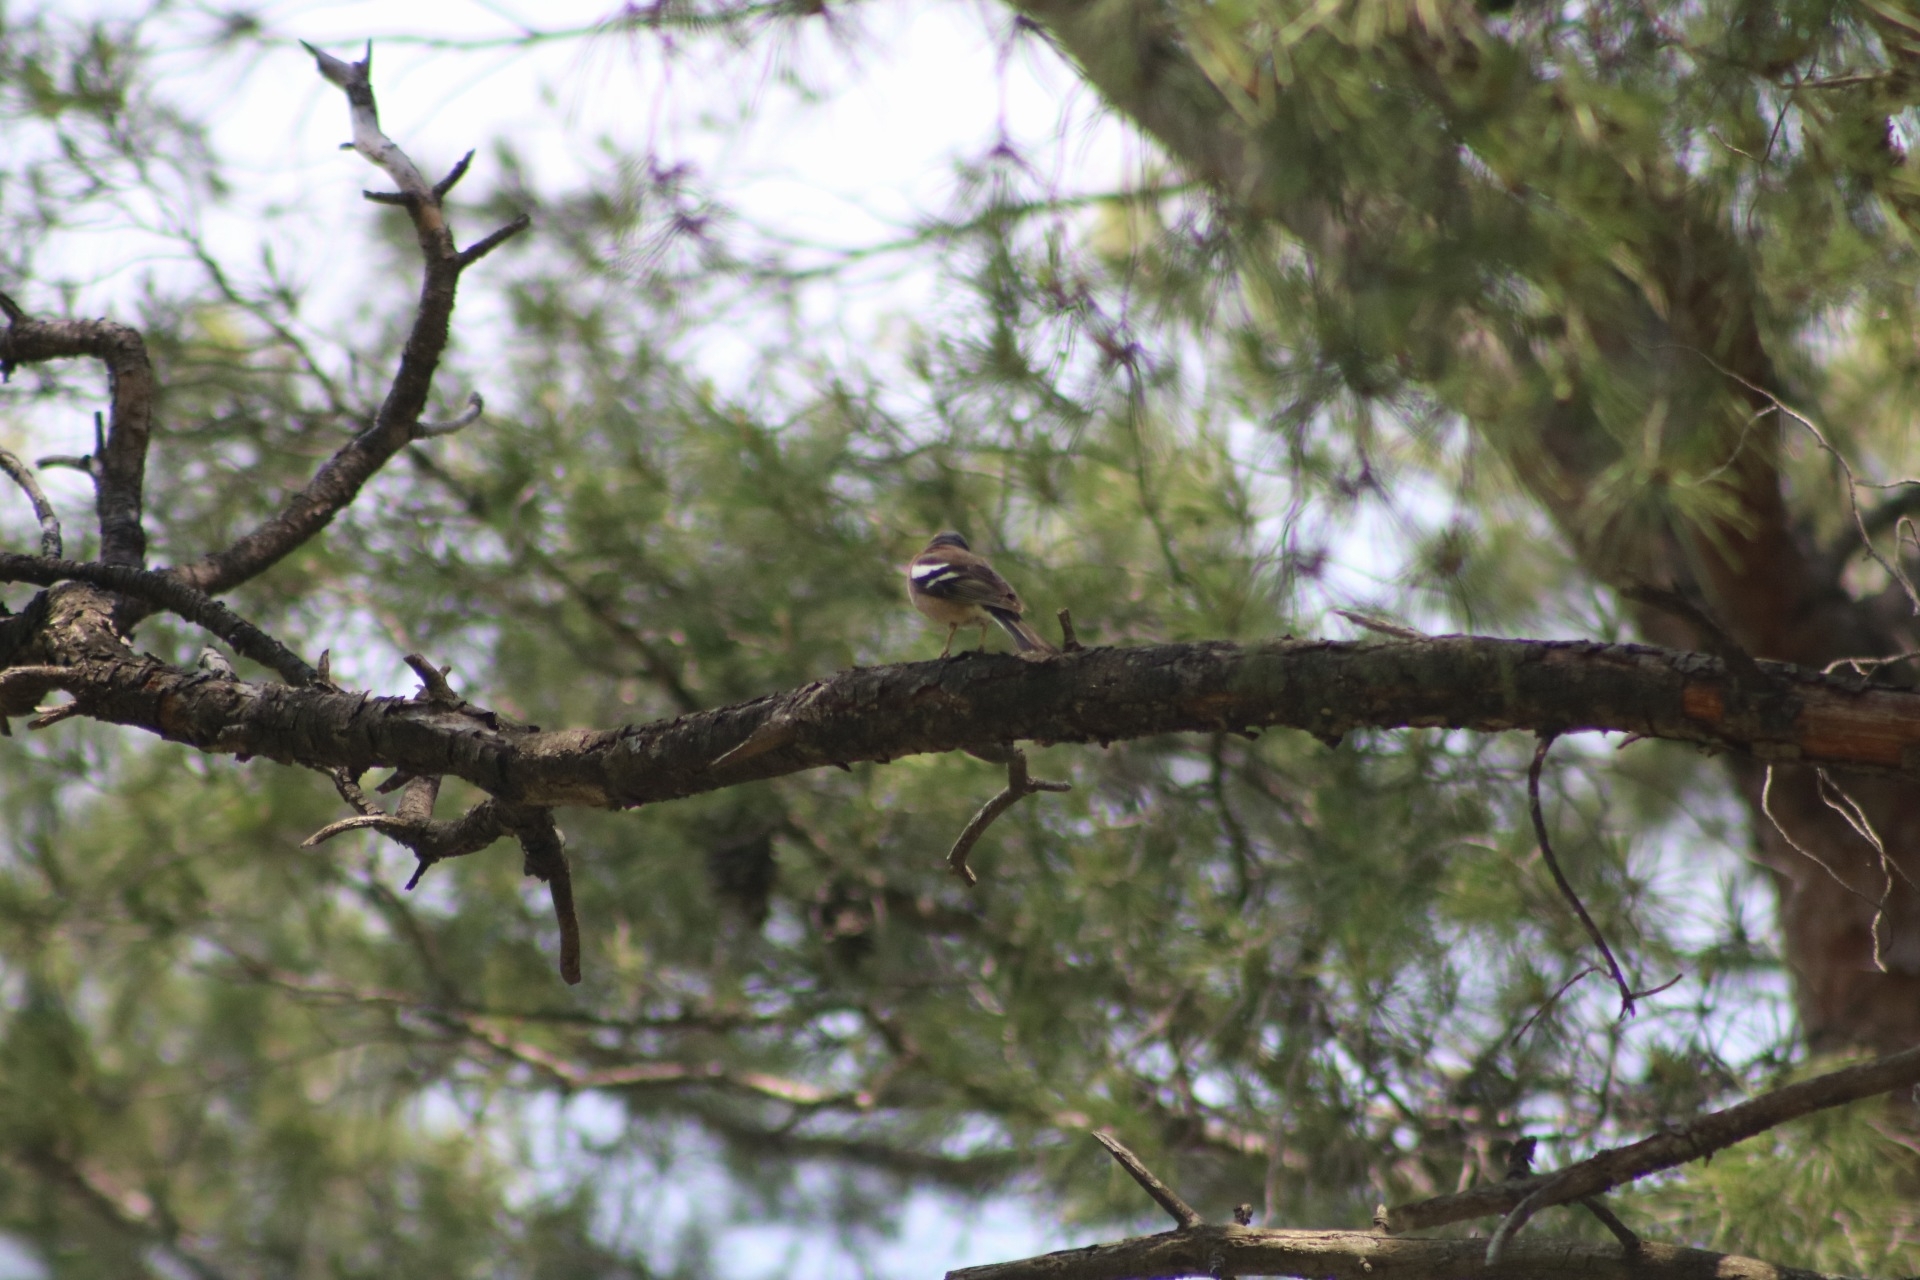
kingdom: Animalia
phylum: Chordata
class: Aves
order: Passeriformes
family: Fringillidae
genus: Fringilla
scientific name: Fringilla coelebs
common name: Common chaffinch
